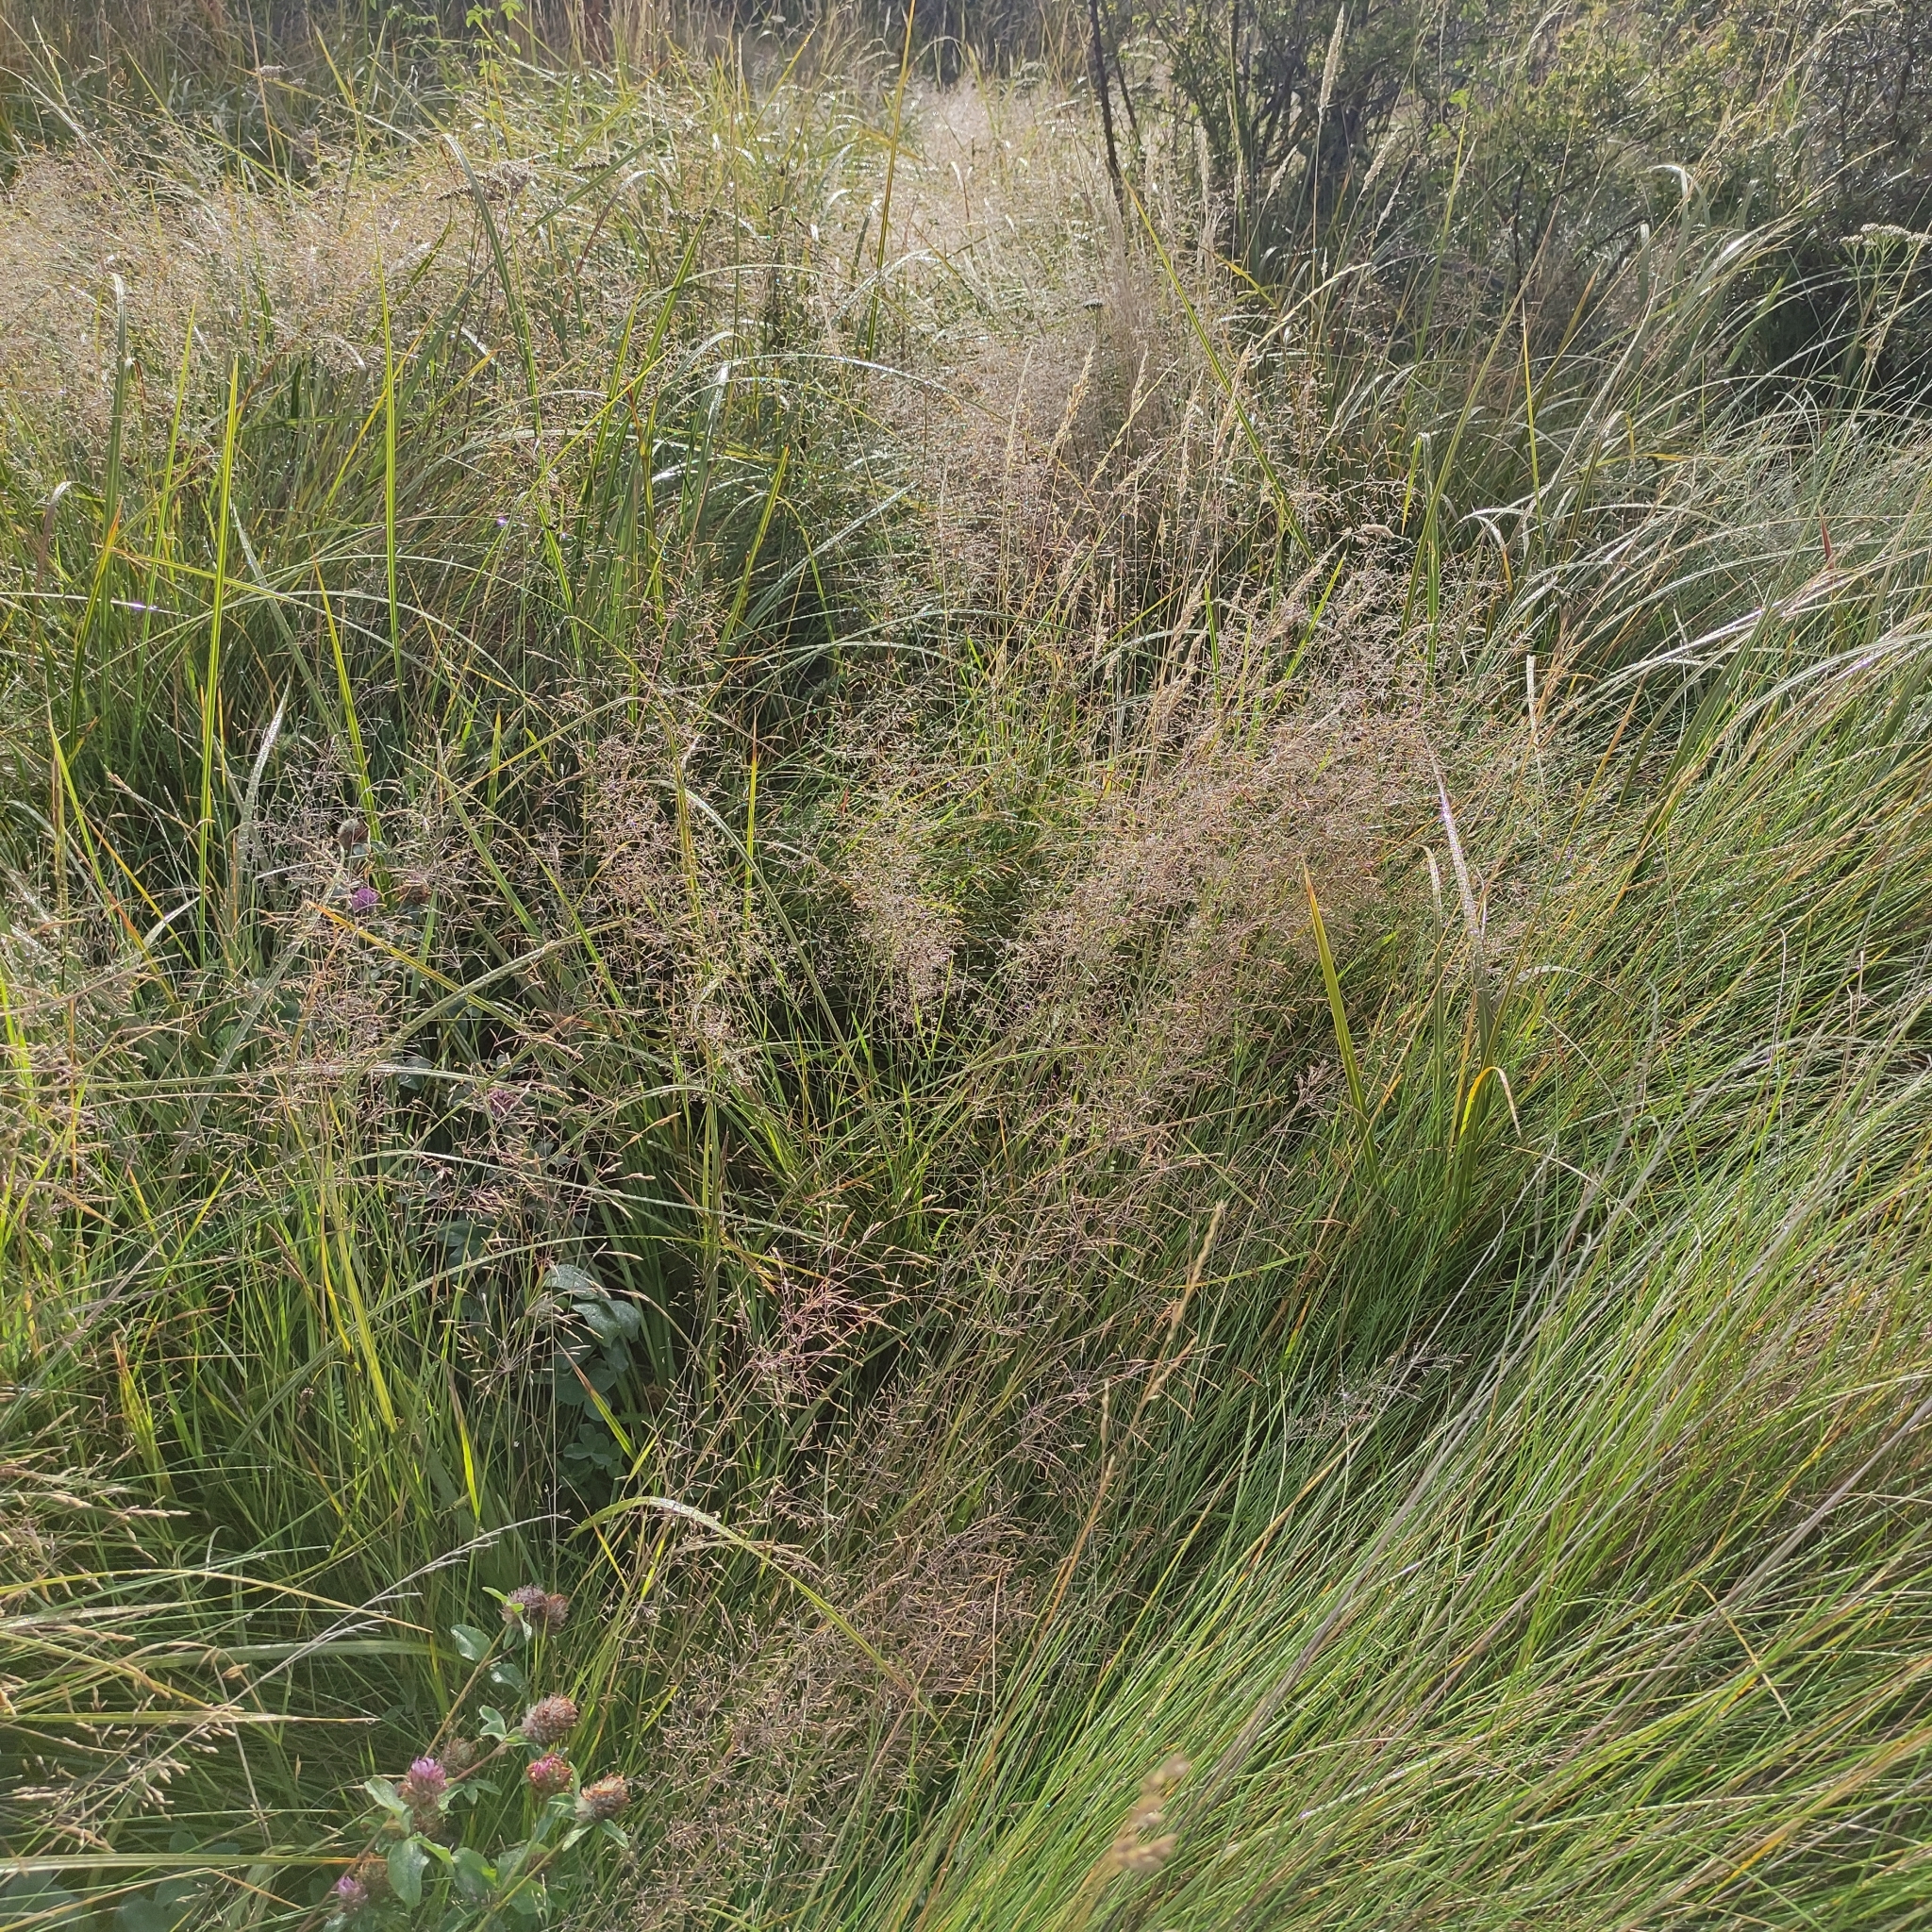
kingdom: Plantae
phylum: Tracheophyta
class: Liliopsida
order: Poales
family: Poaceae
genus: Agrostis
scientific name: Agrostis capillaris
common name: Colonial bentgrass
